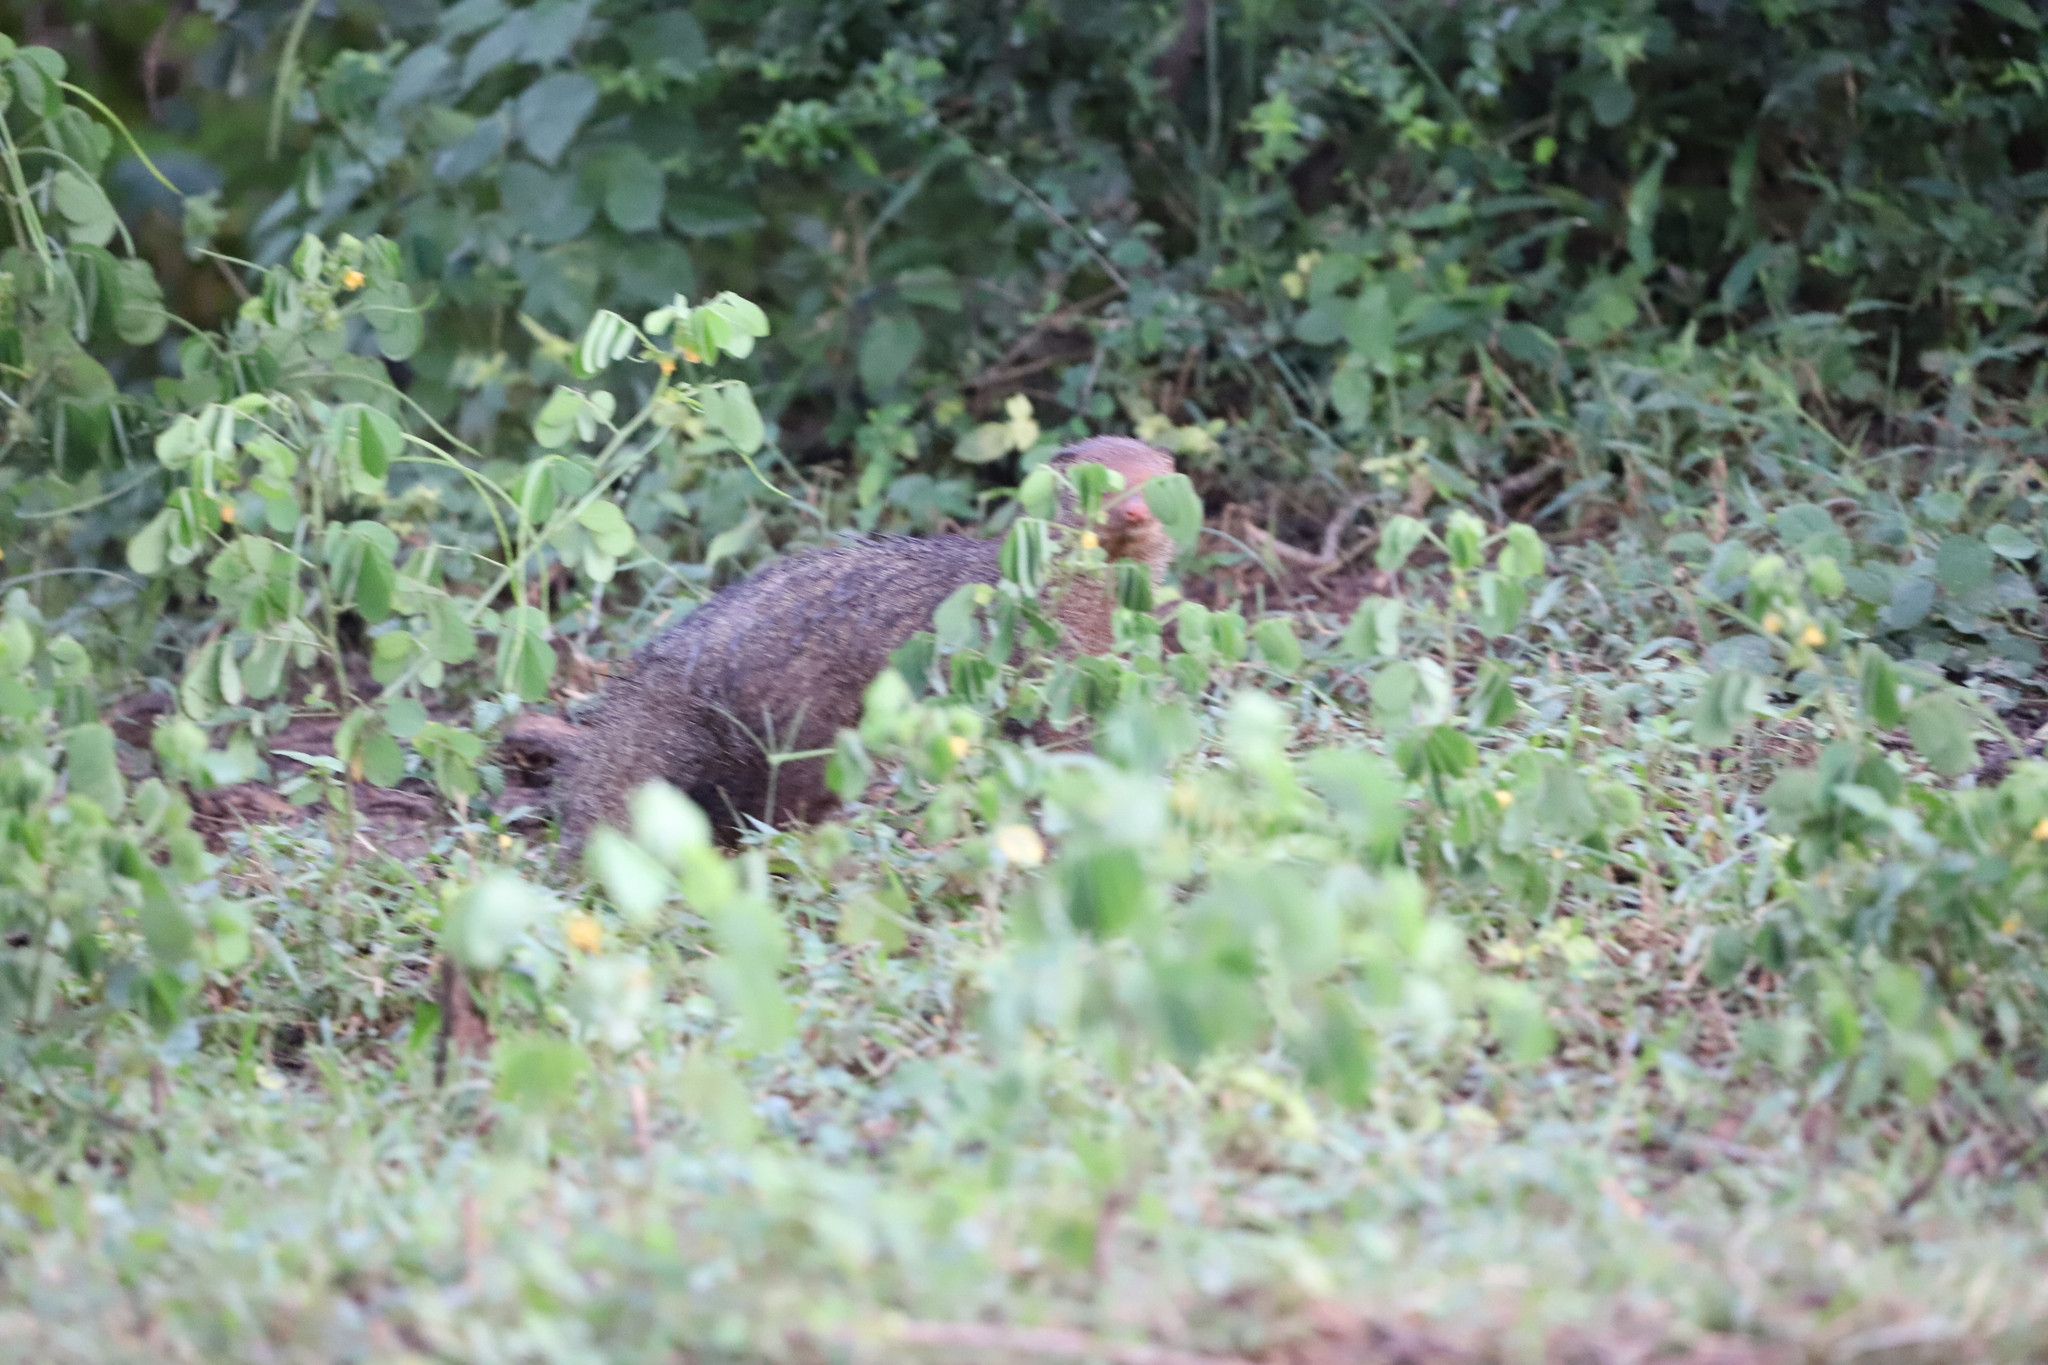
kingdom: Animalia
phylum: Chordata
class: Mammalia
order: Carnivora
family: Herpestidae
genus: Herpestes
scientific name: Herpestes smithii
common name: Ruddy mongoose
